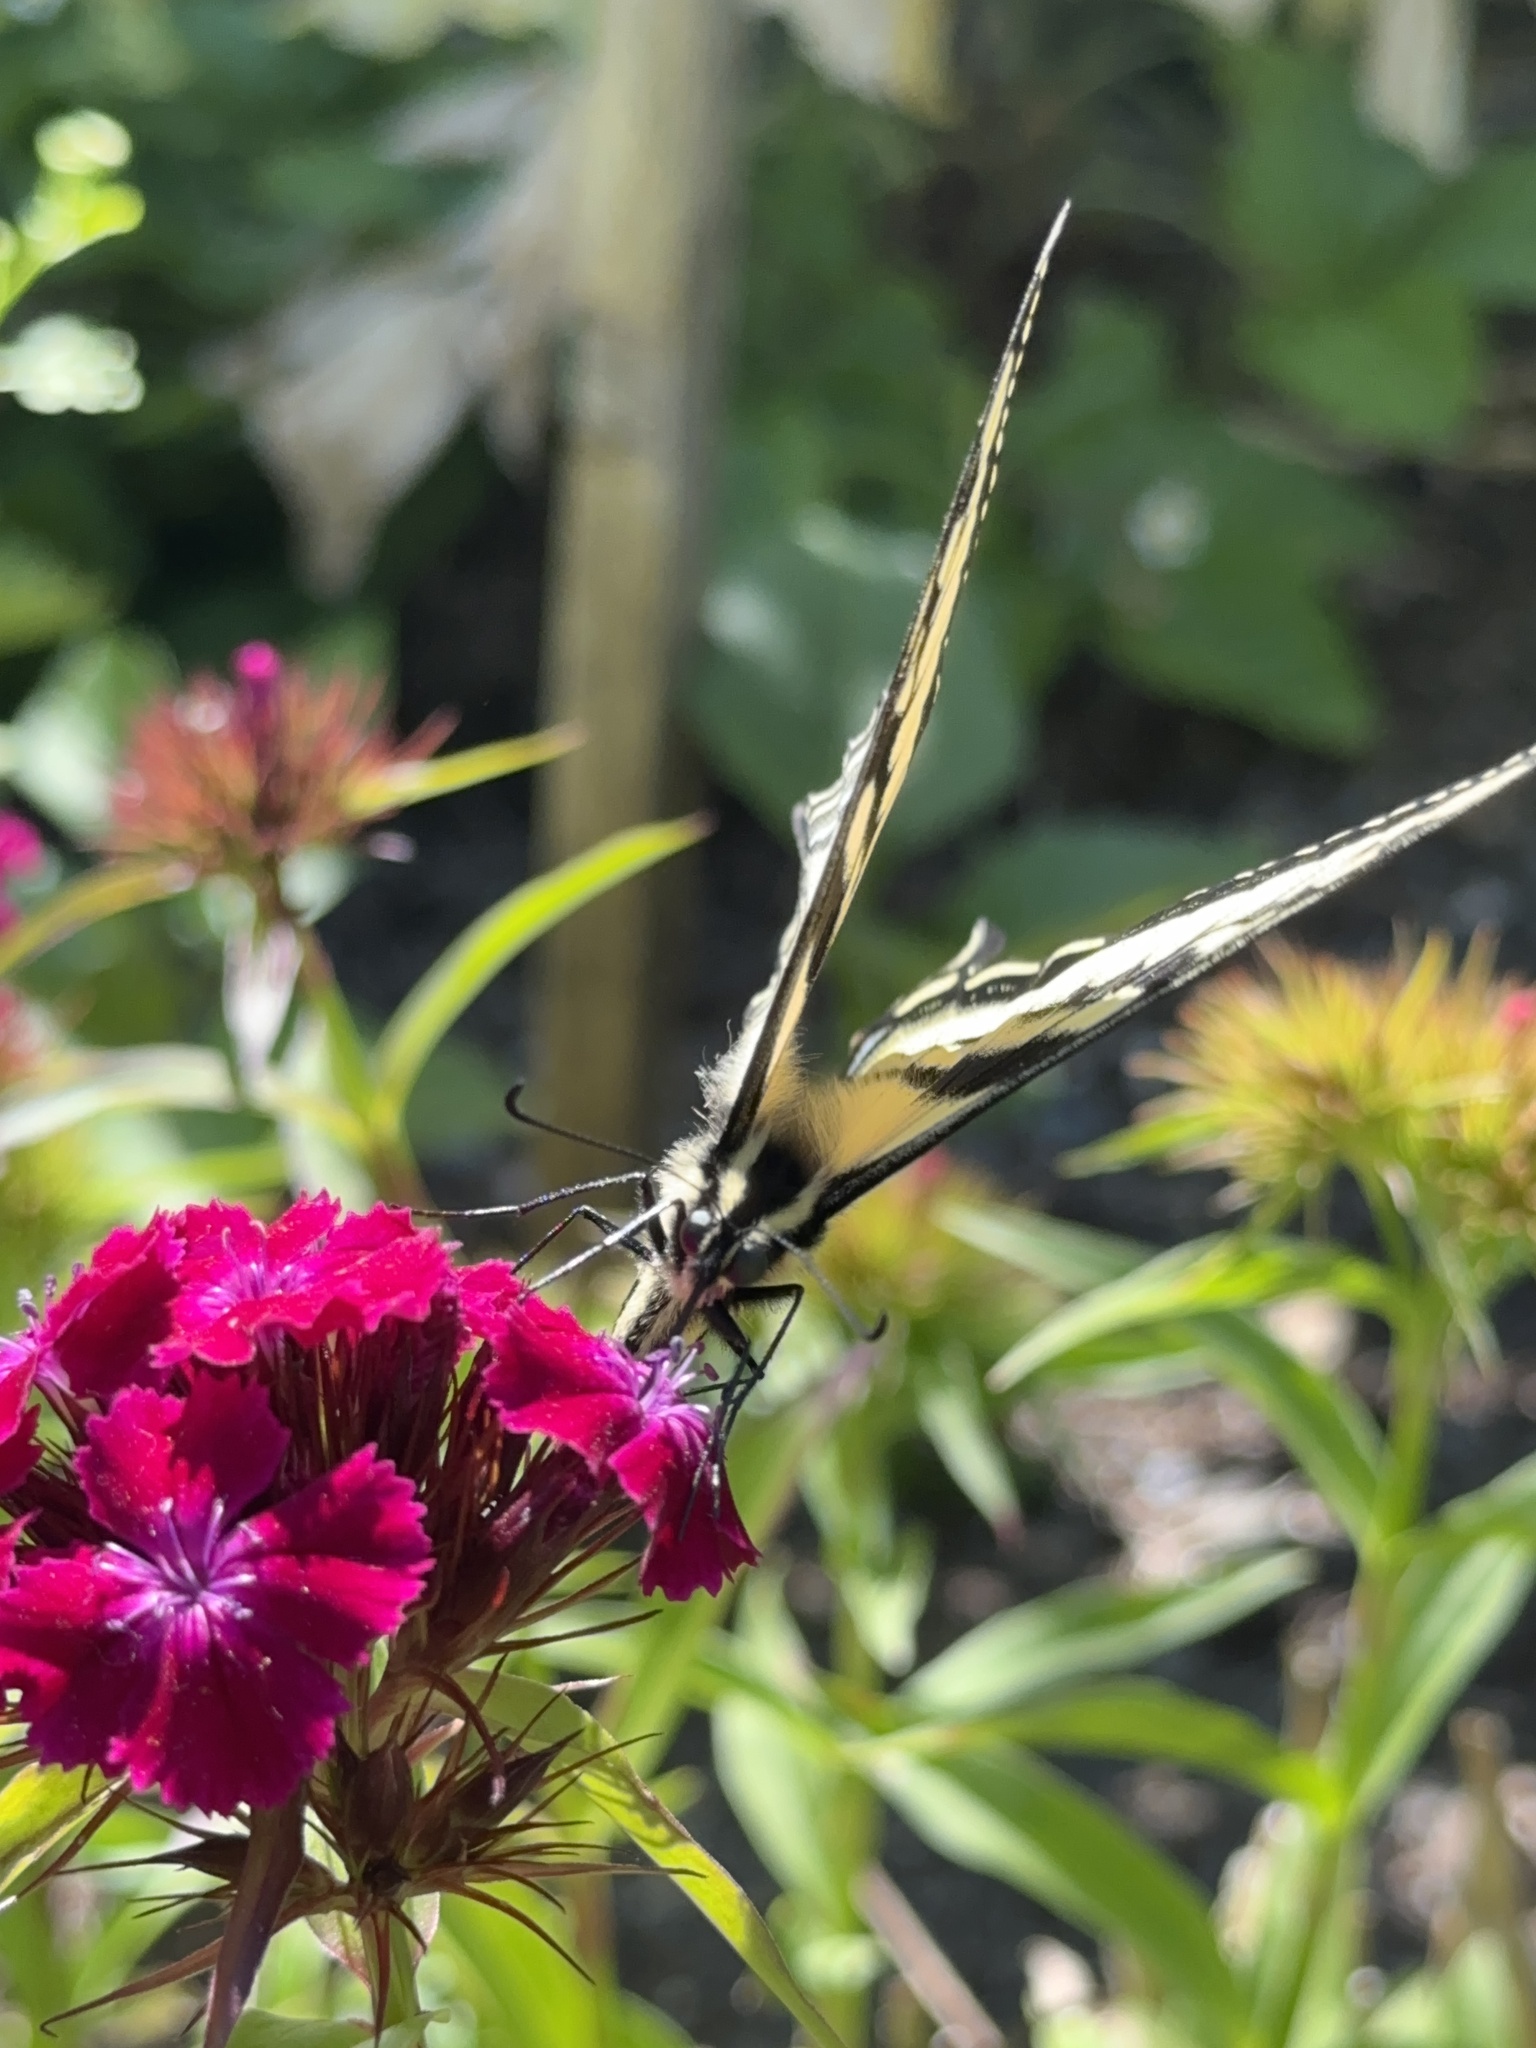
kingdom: Animalia
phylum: Arthropoda
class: Insecta
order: Lepidoptera
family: Papilionidae
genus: Papilio
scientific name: Papilio rutulus
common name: Western tiger swallowtail
